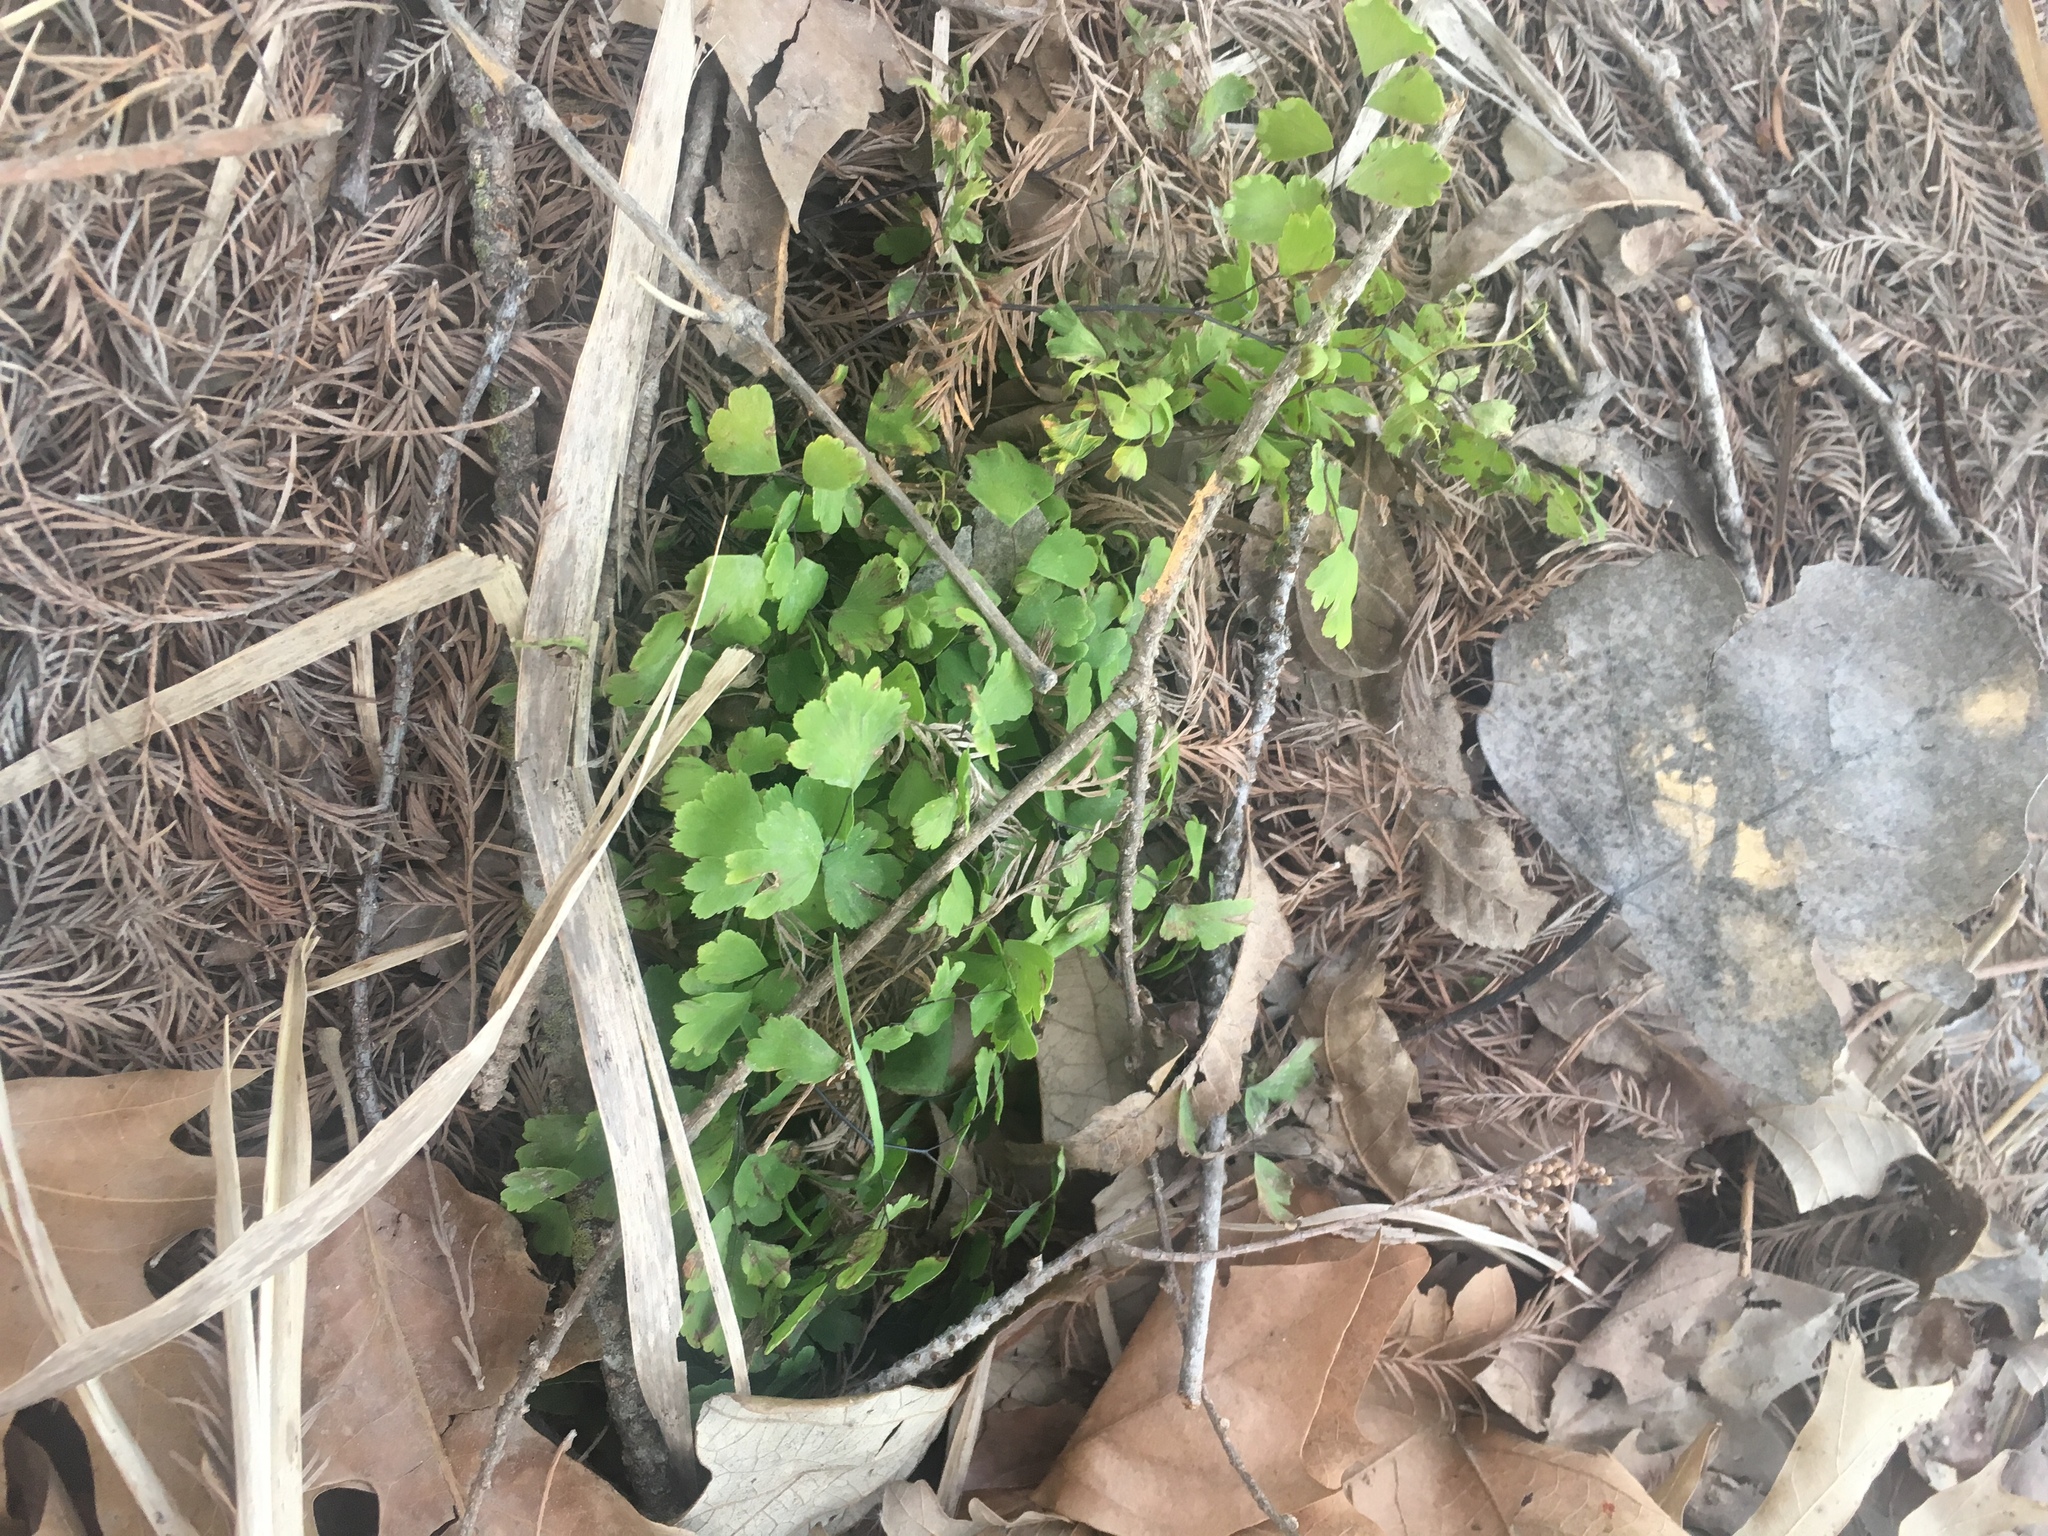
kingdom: Plantae
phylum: Tracheophyta
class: Polypodiopsida
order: Polypodiales
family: Pteridaceae
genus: Adiantum
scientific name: Adiantum capillus-veneris
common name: Maidenhair fern
